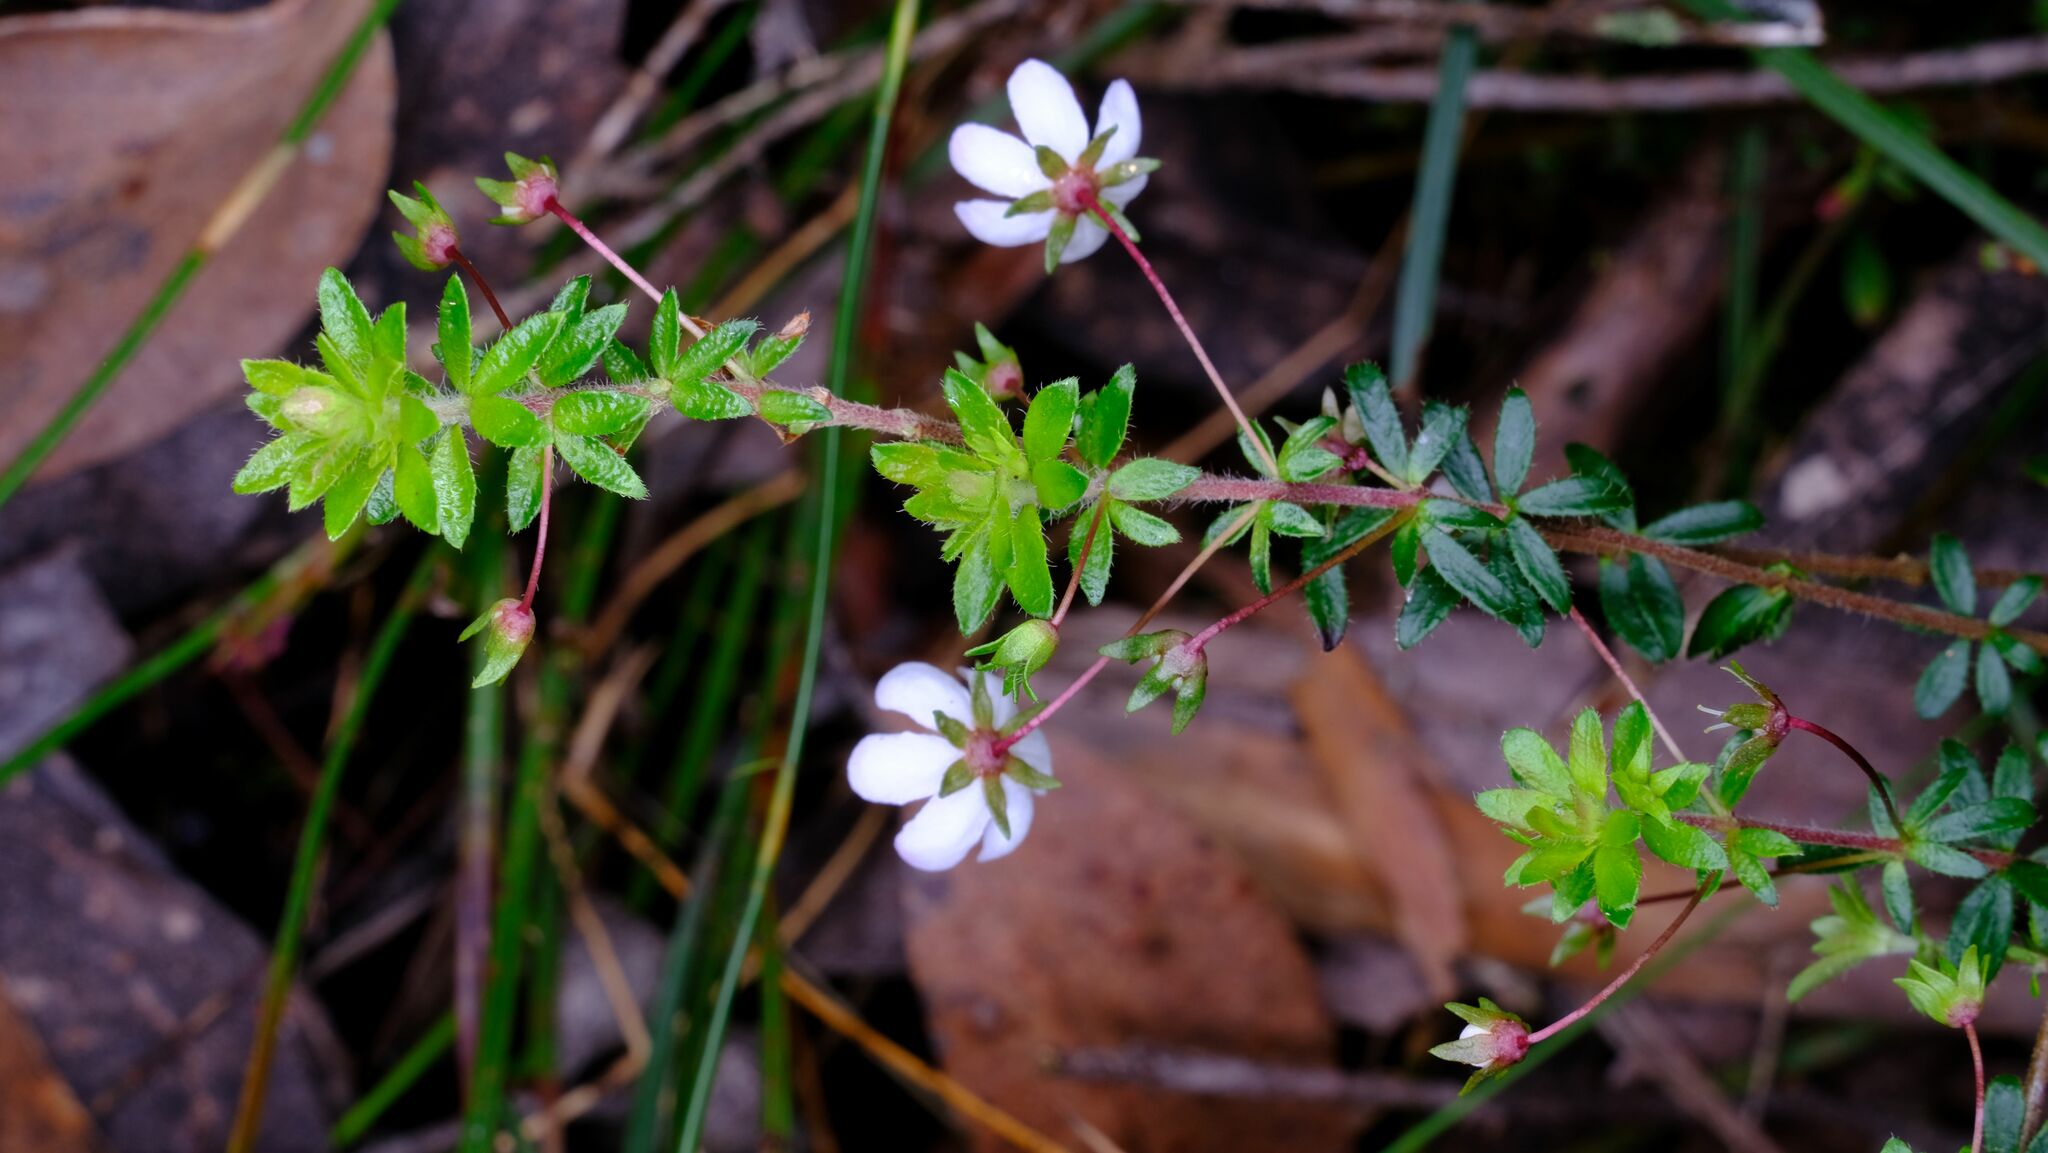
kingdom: Plantae
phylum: Tracheophyta
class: Magnoliopsida
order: Oxalidales
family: Cunoniaceae
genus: Bauera
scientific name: Bauera rubioides
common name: River-rose
